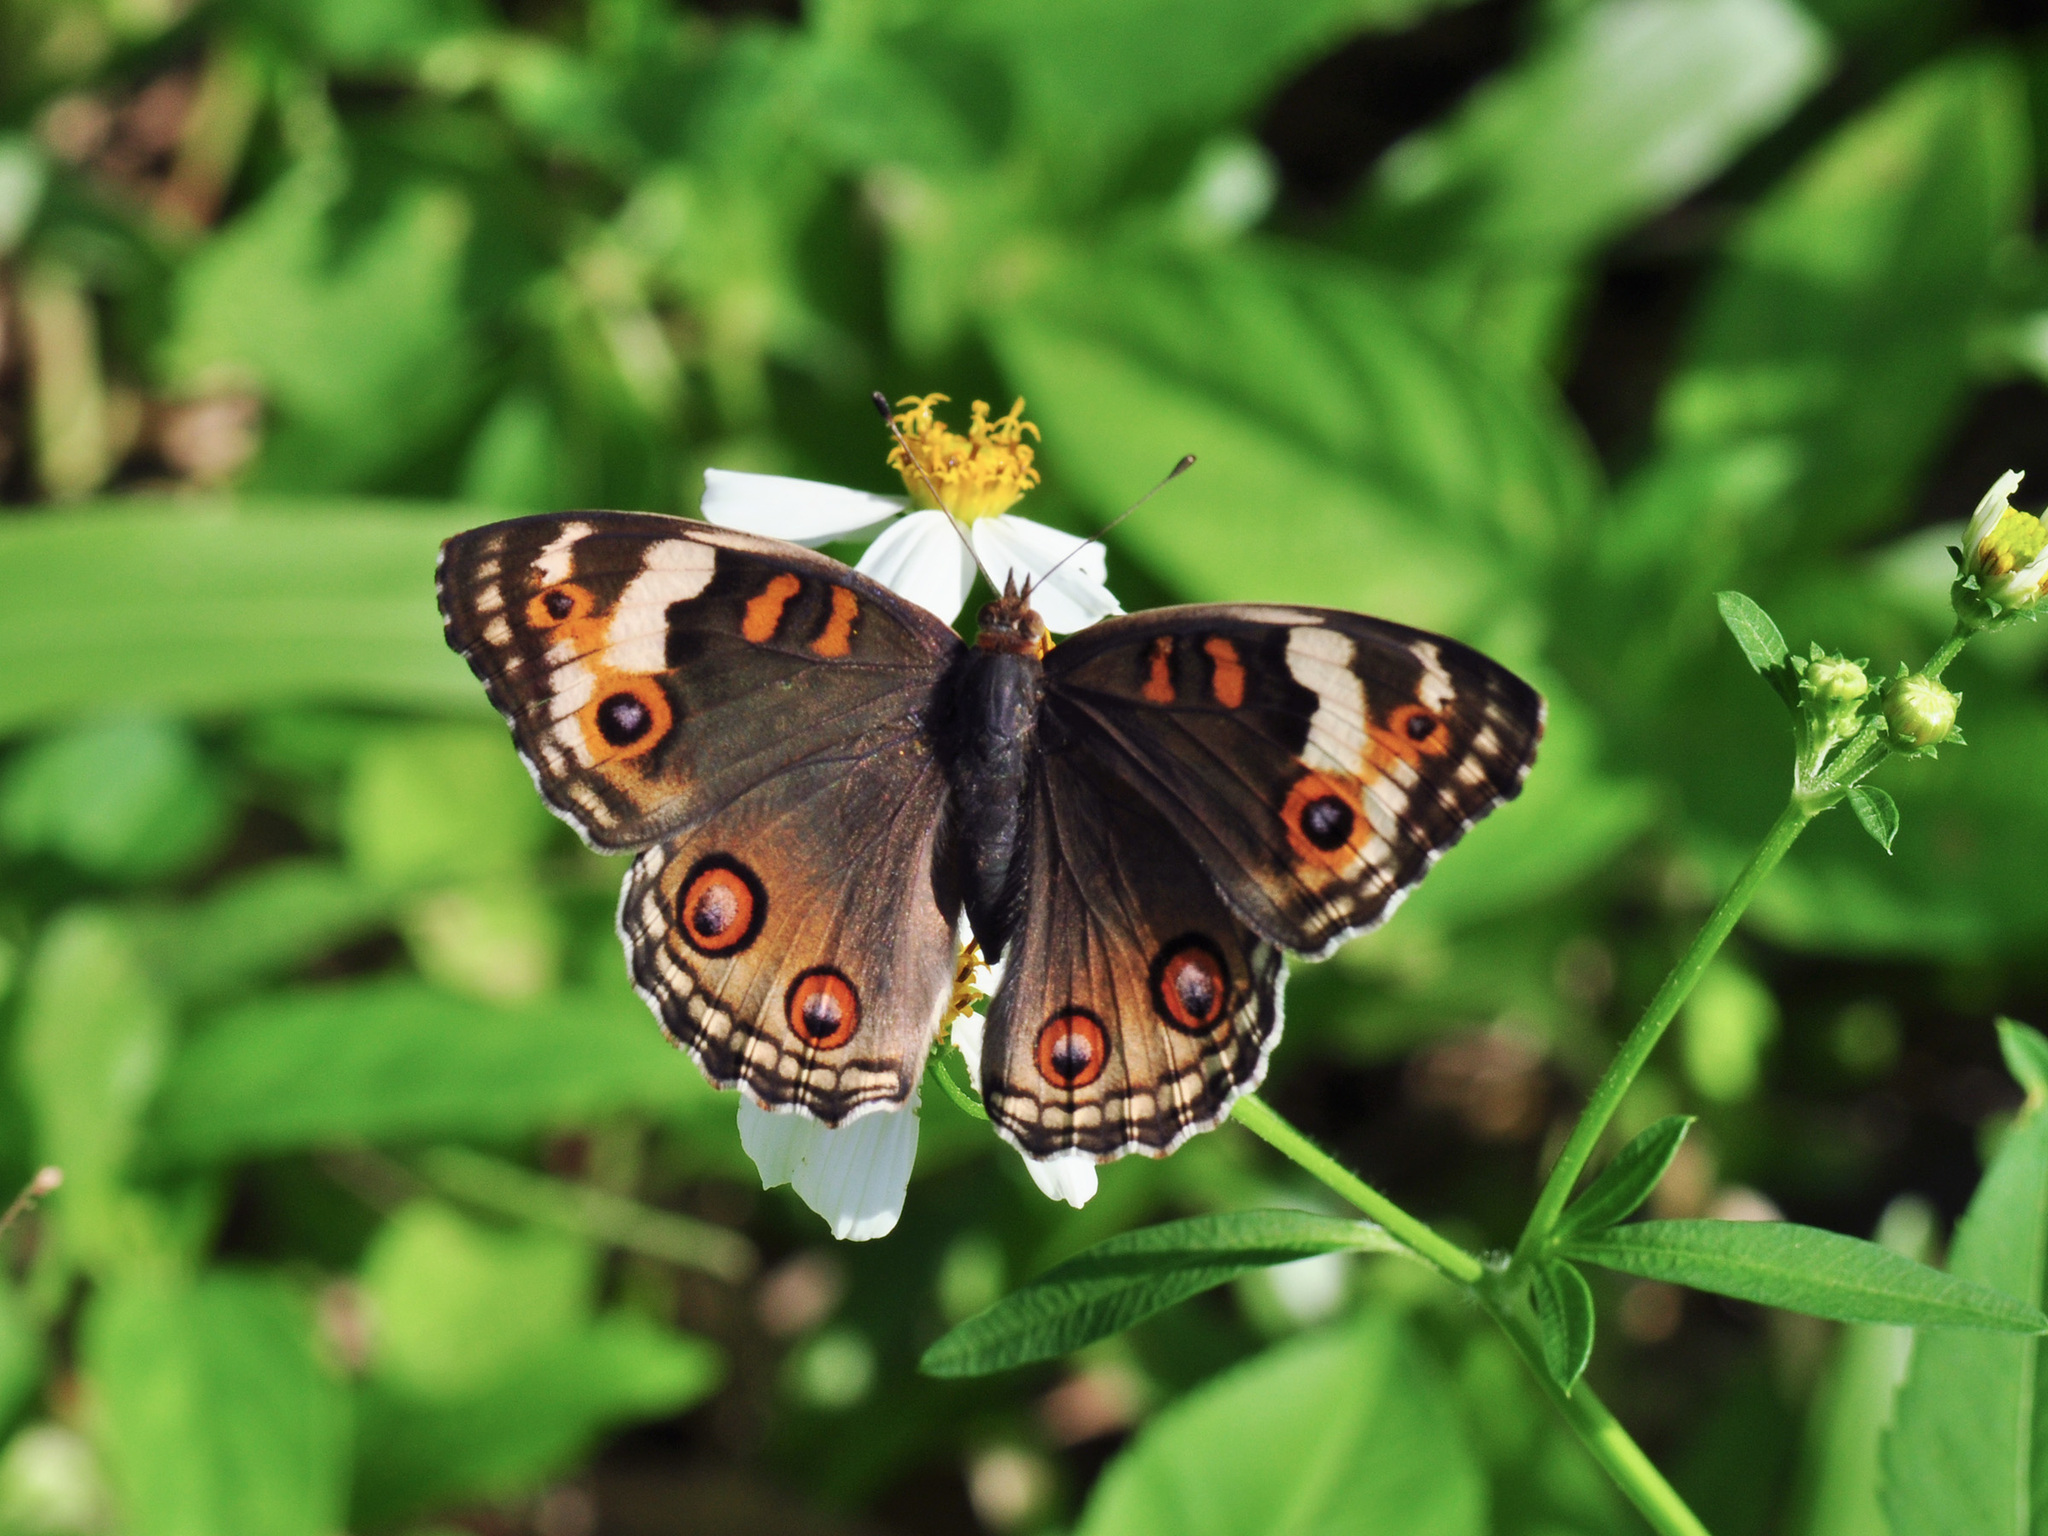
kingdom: Animalia
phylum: Arthropoda
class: Insecta
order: Lepidoptera
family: Nymphalidae
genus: Junonia
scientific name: Junonia orithya
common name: Blue pansy
